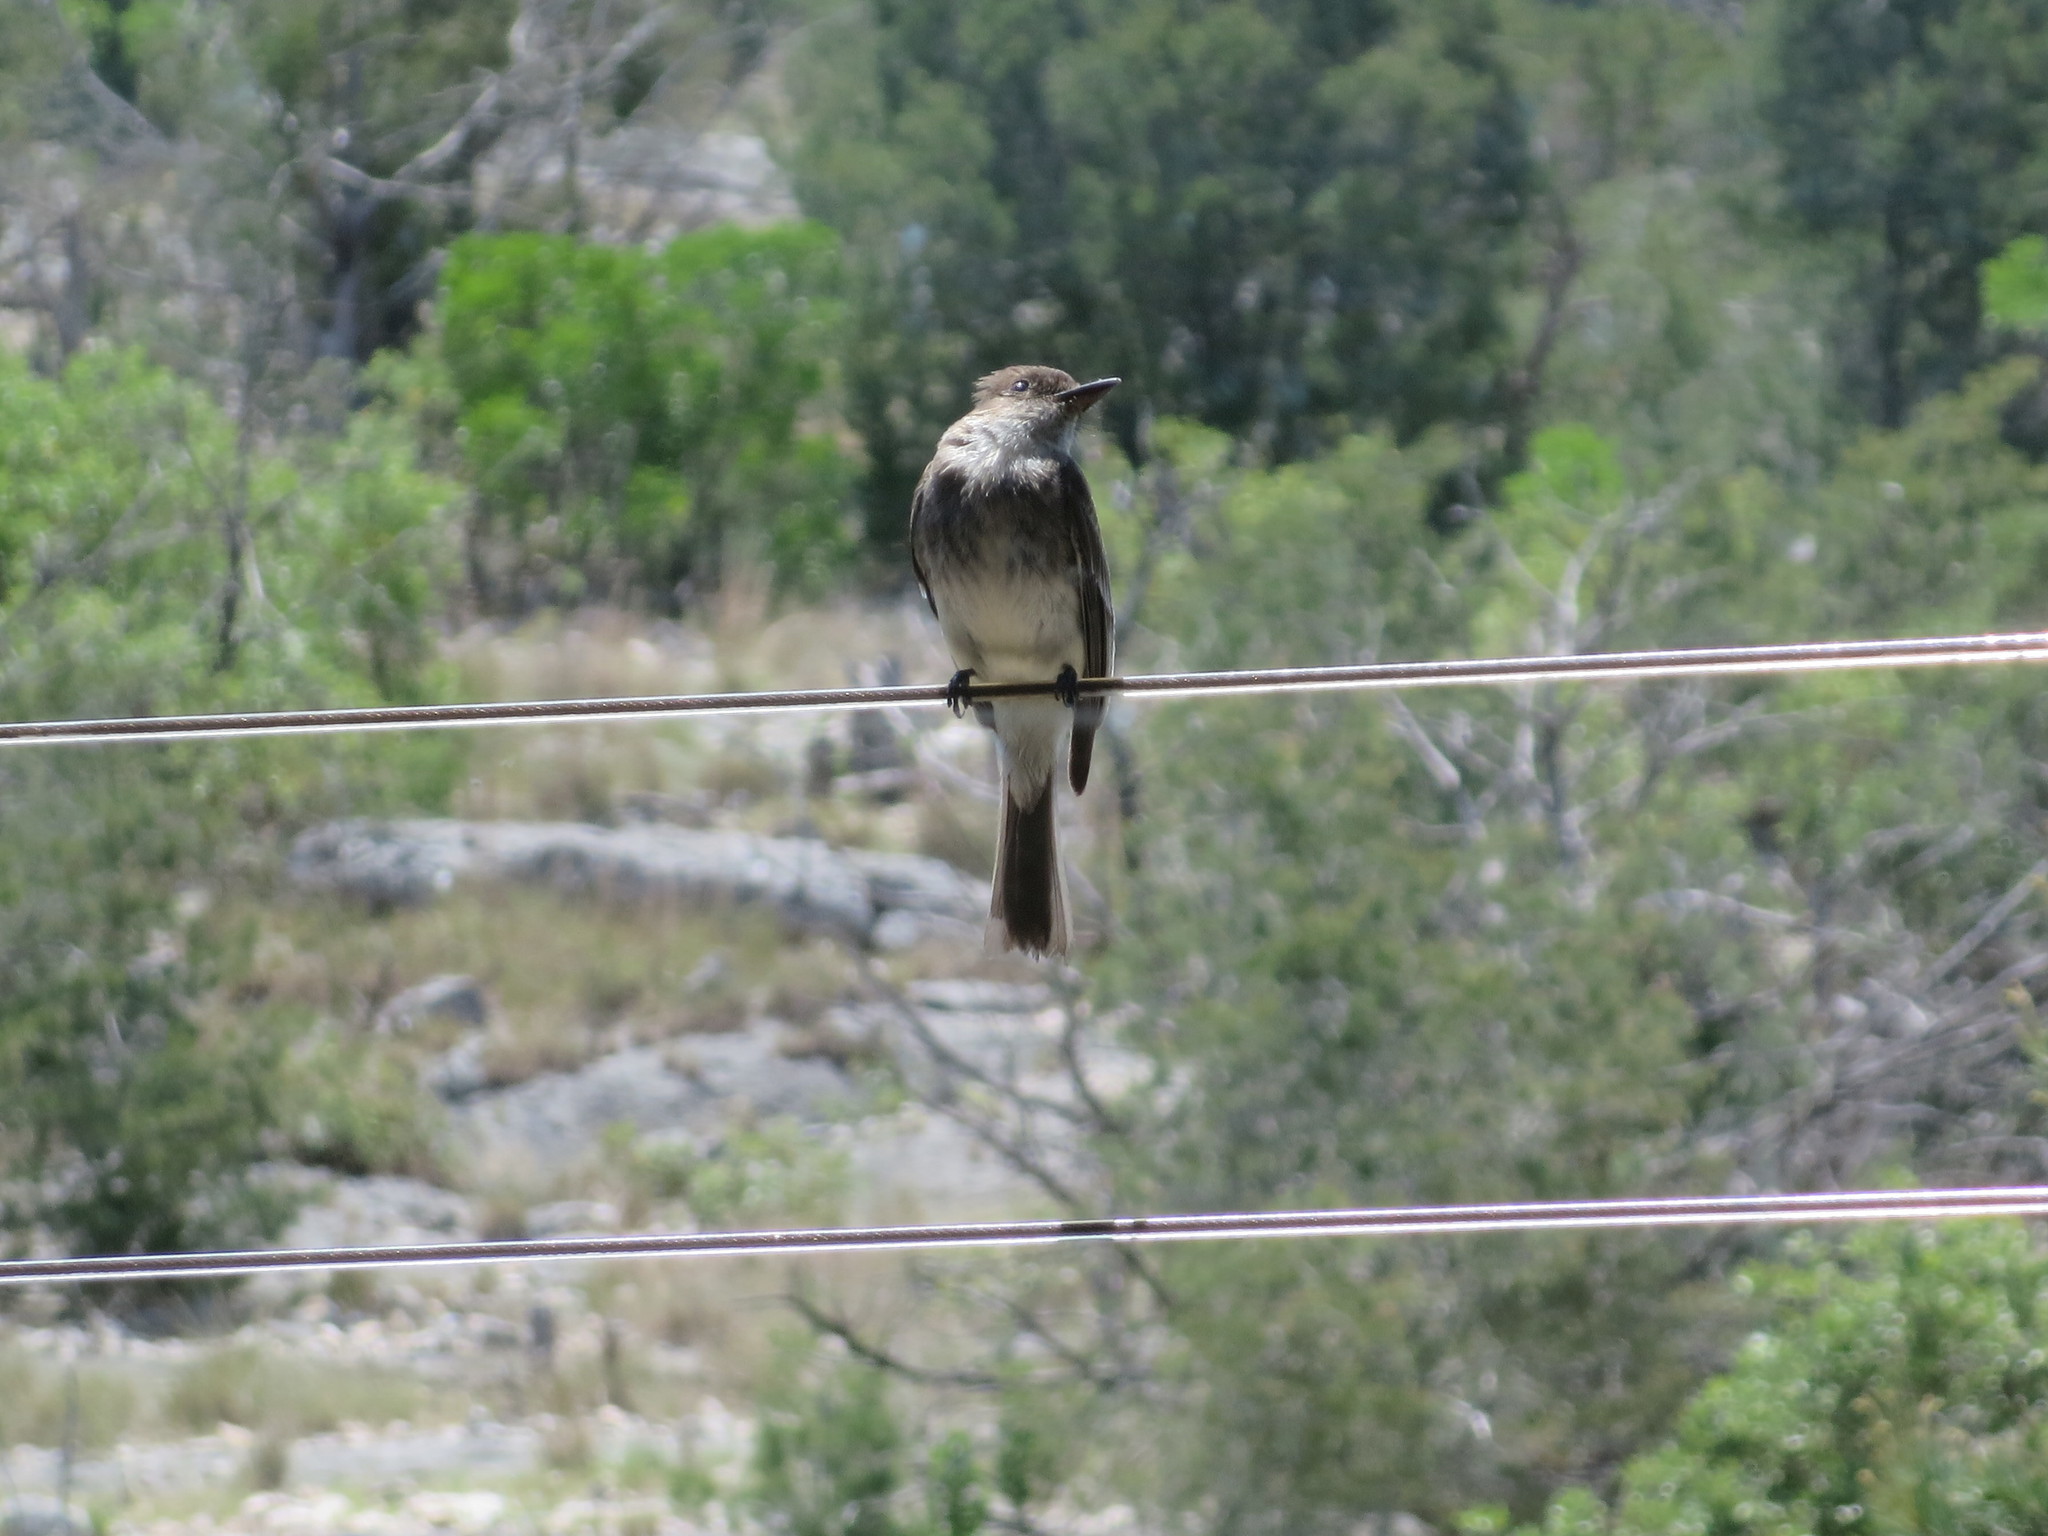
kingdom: Animalia
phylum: Chordata
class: Aves
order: Passeriformes
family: Tyrannidae
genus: Sayornis
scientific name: Sayornis phoebe
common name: Eastern phoebe
